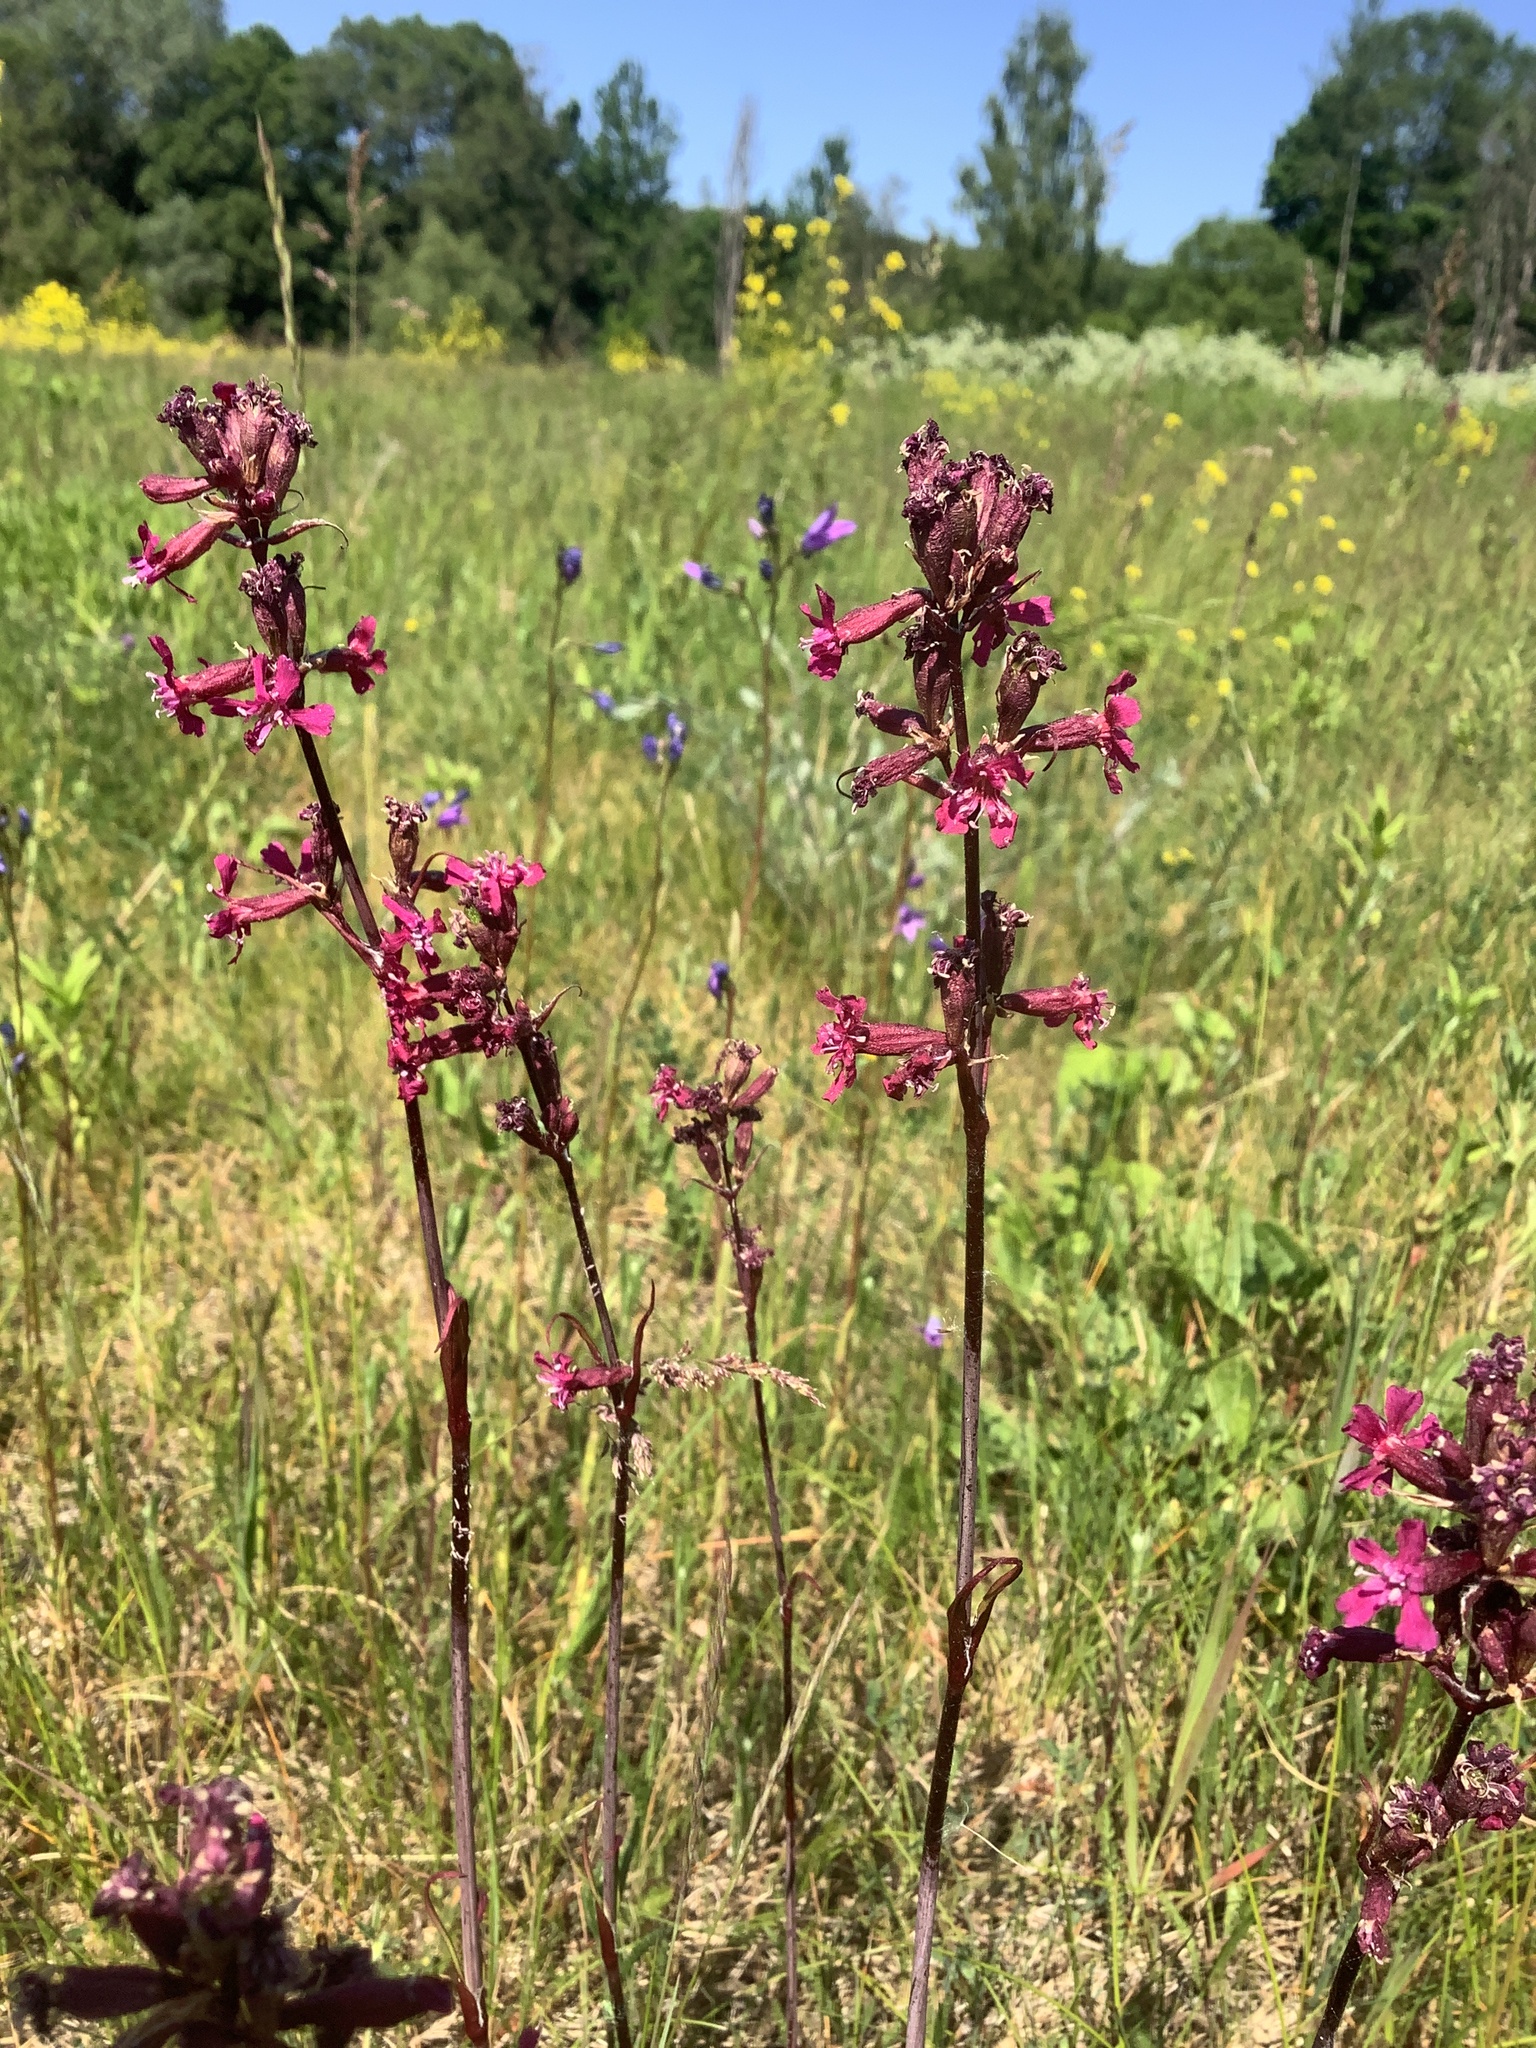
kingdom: Plantae
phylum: Tracheophyta
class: Magnoliopsida
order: Caryophyllales
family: Caryophyllaceae
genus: Viscaria
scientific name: Viscaria vulgaris
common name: Clammy campion
